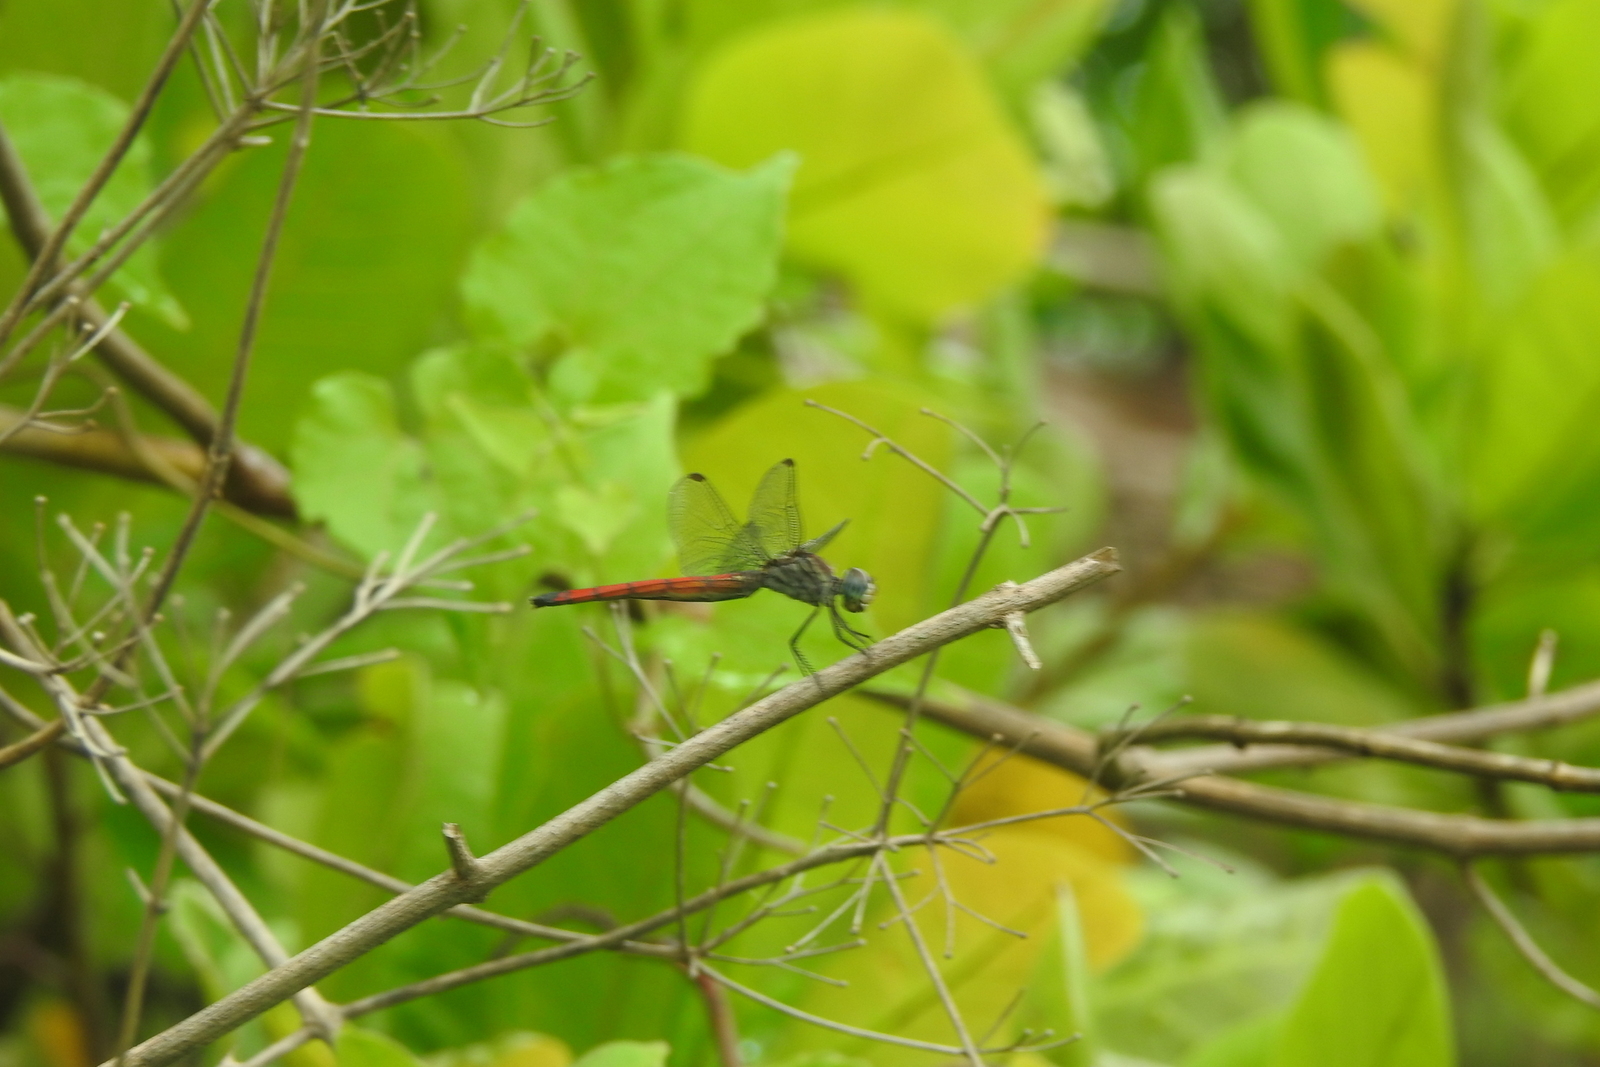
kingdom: Animalia
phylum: Arthropoda
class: Insecta
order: Odonata
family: Libellulidae
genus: Lathrecista
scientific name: Lathrecista asiatica
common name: Scarlet grenadier
